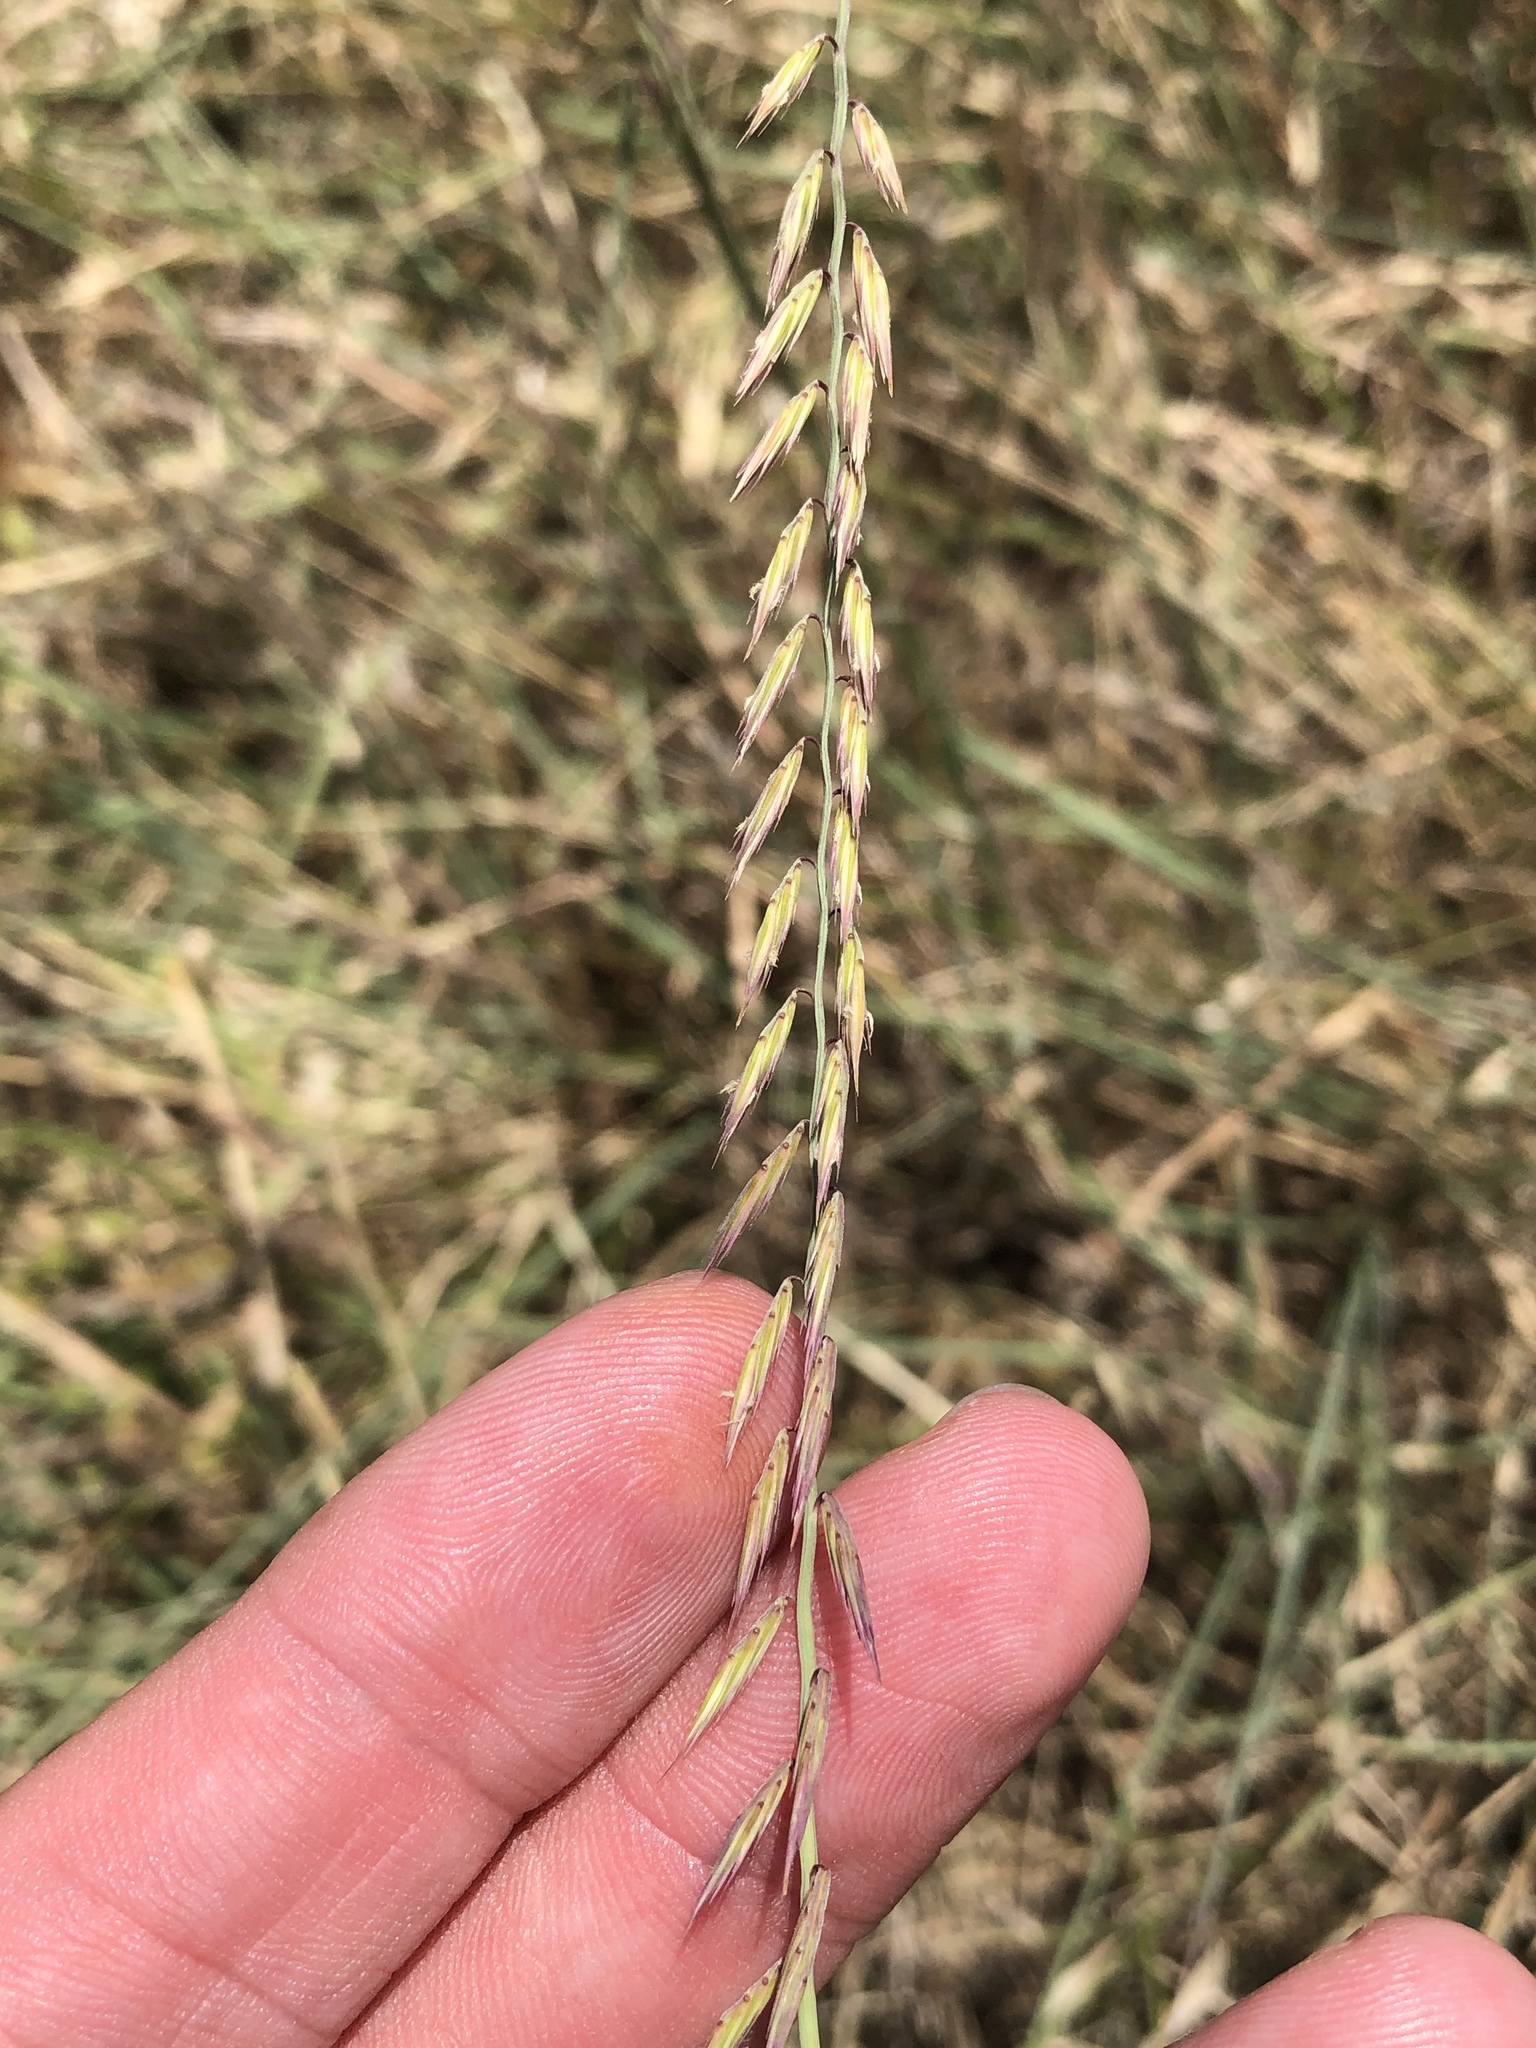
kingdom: Plantae
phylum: Tracheophyta
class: Liliopsida
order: Poales
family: Poaceae
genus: Bouteloua
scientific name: Bouteloua curtipendula
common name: Side-oats grama
